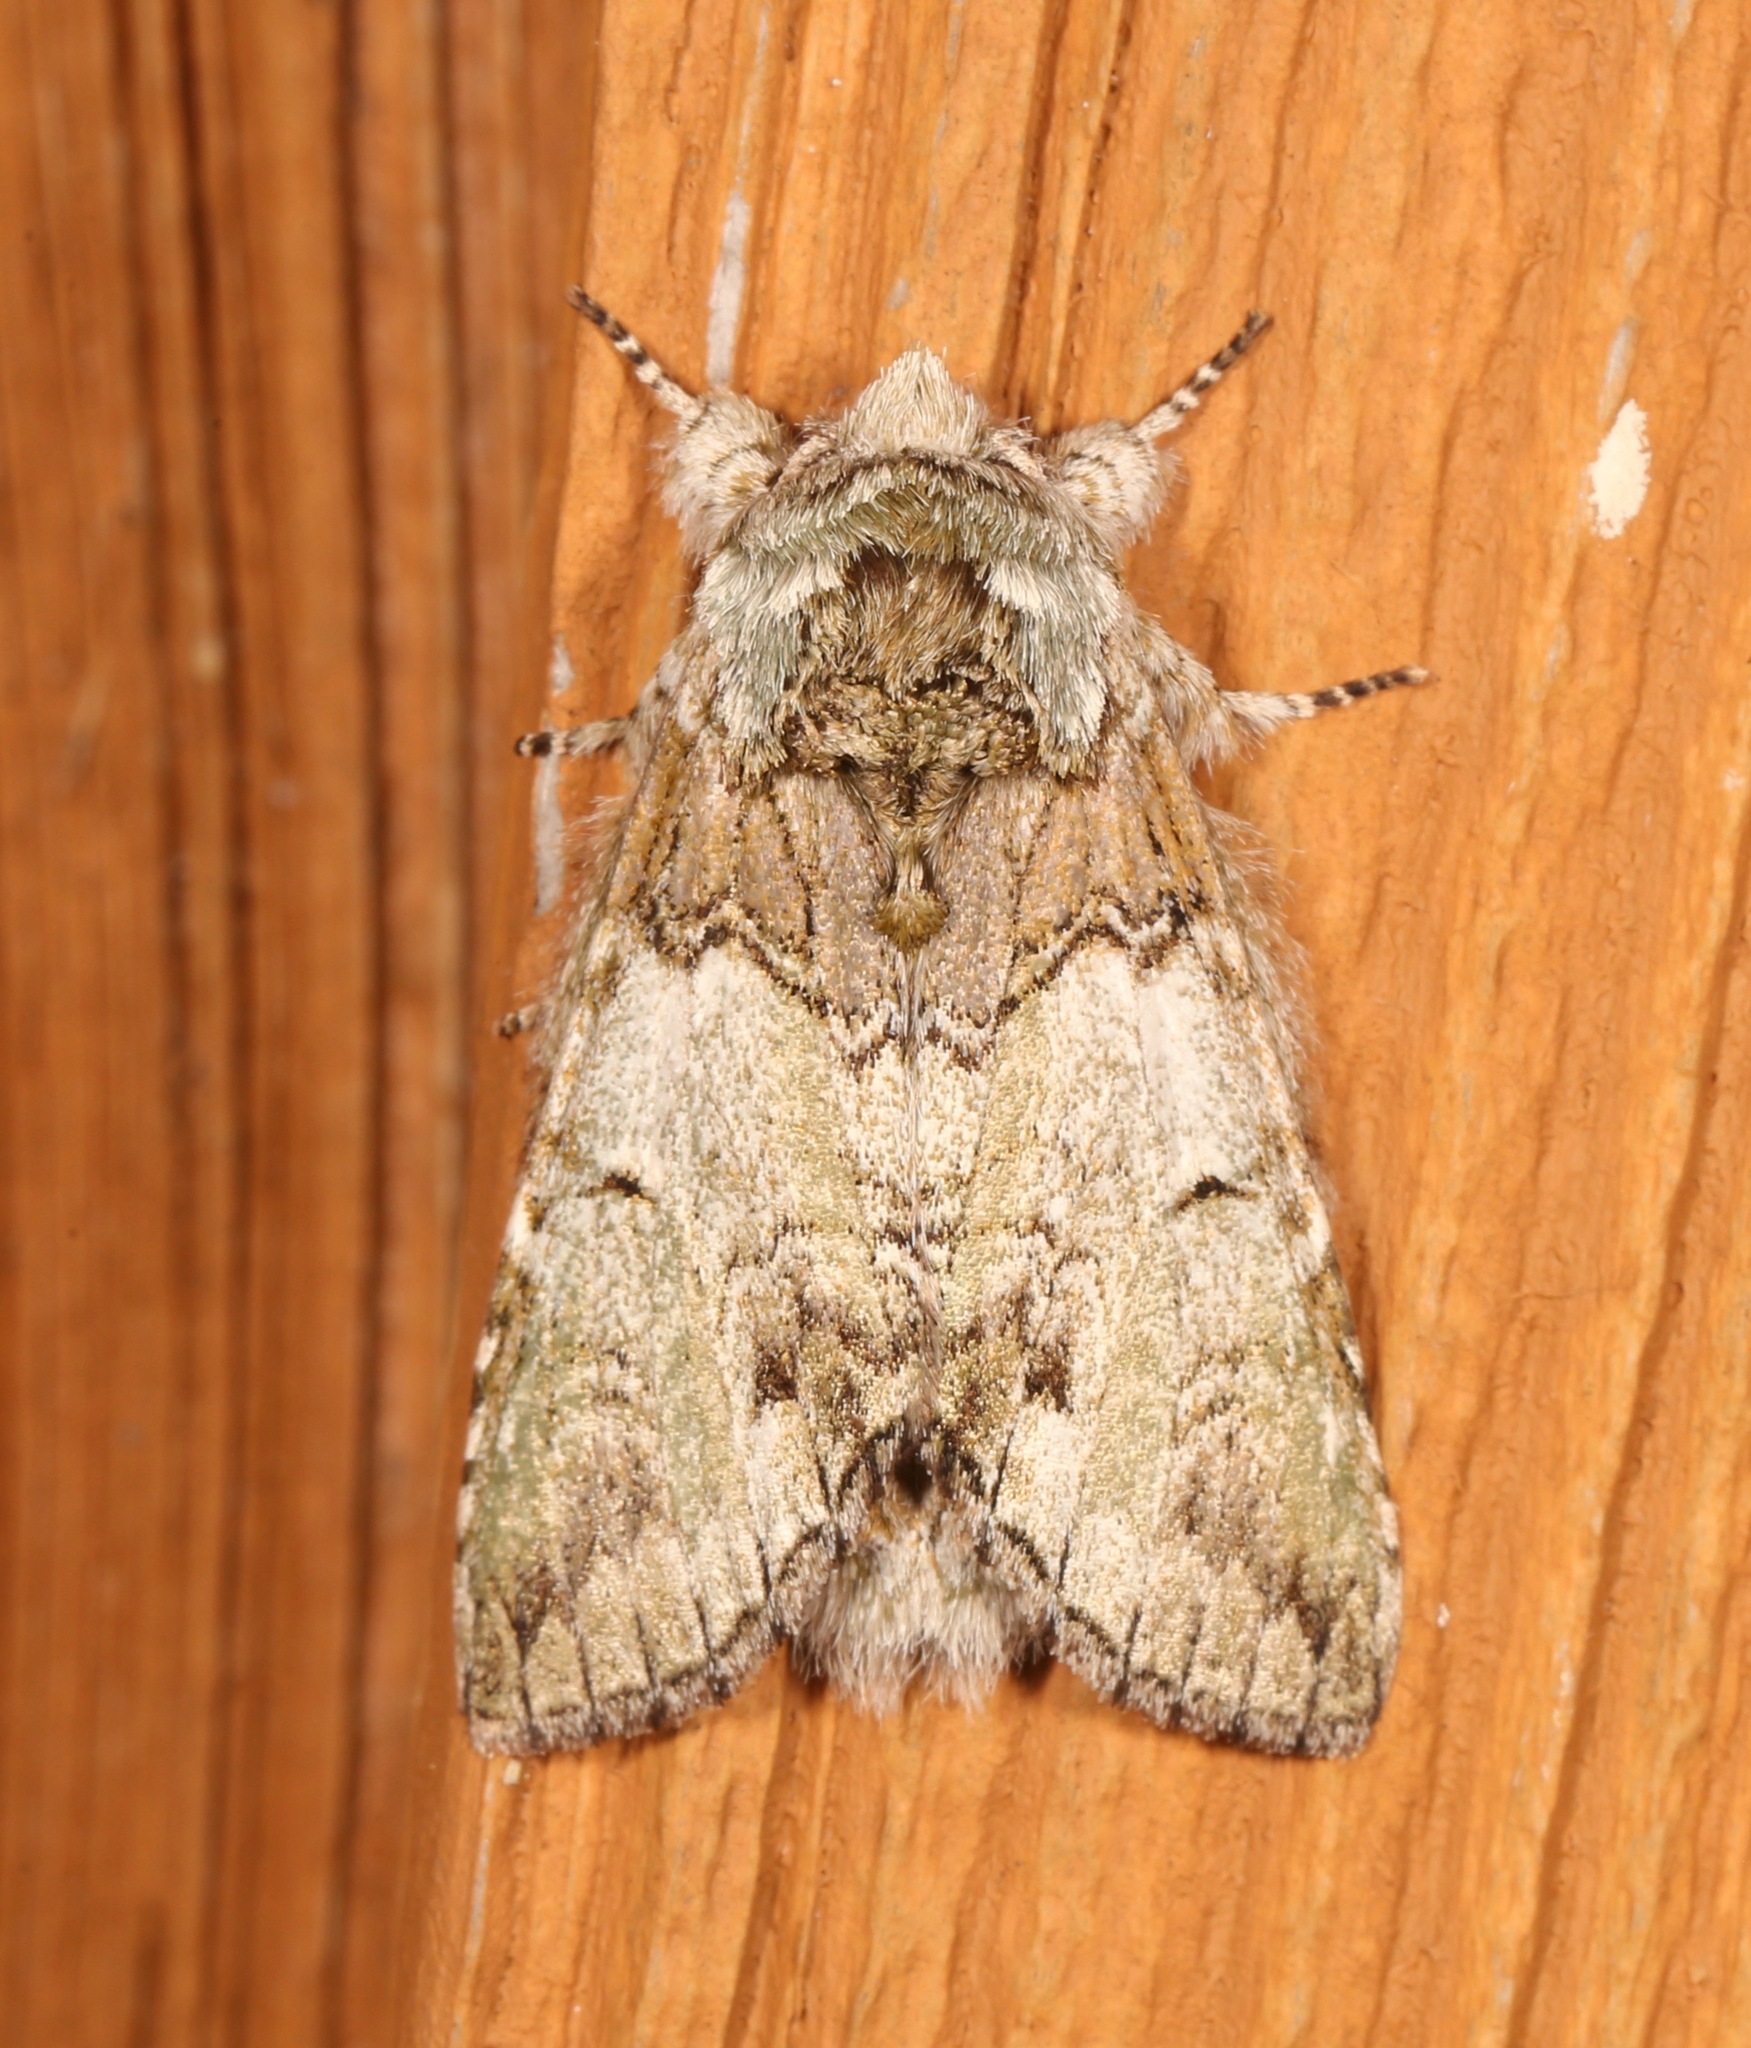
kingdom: Animalia
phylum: Arthropoda
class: Insecta
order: Lepidoptera
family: Notodontidae
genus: Macrurocampa
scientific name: Macrurocampa marthesia
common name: Mottled prominent
